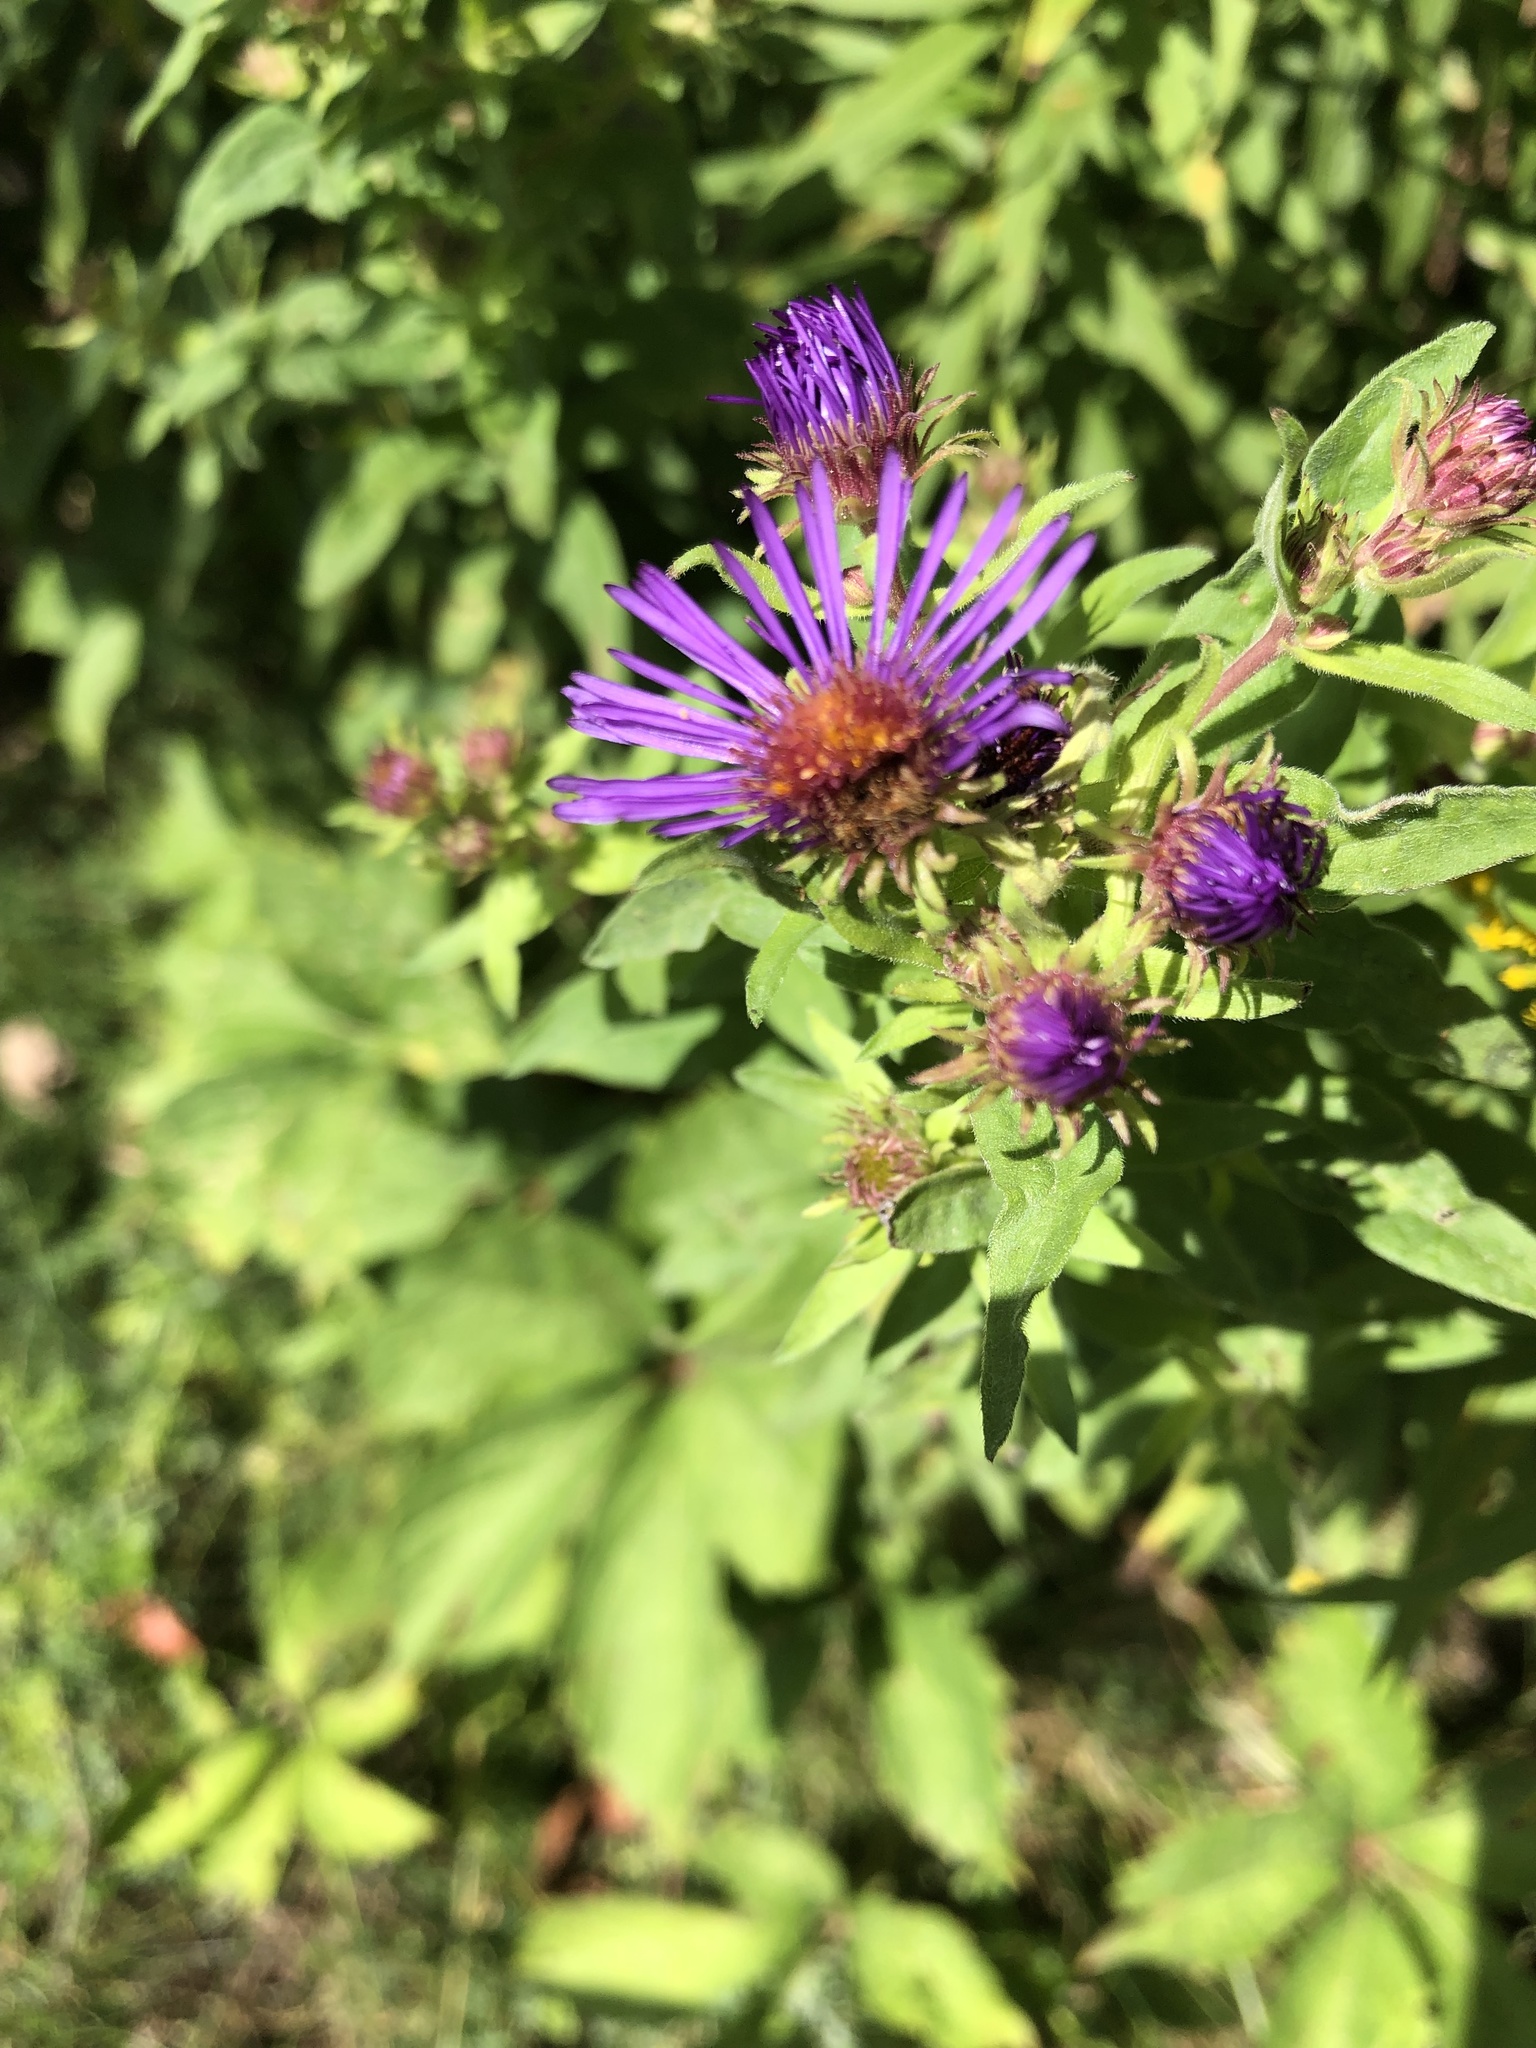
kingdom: Plantae
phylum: Tracheophyta
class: Magnoliopsida
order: Asterales
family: Asteraceae
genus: Symphyotrichum
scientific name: Symphyotrichum novae-angliae
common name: Michaelmas daisy
